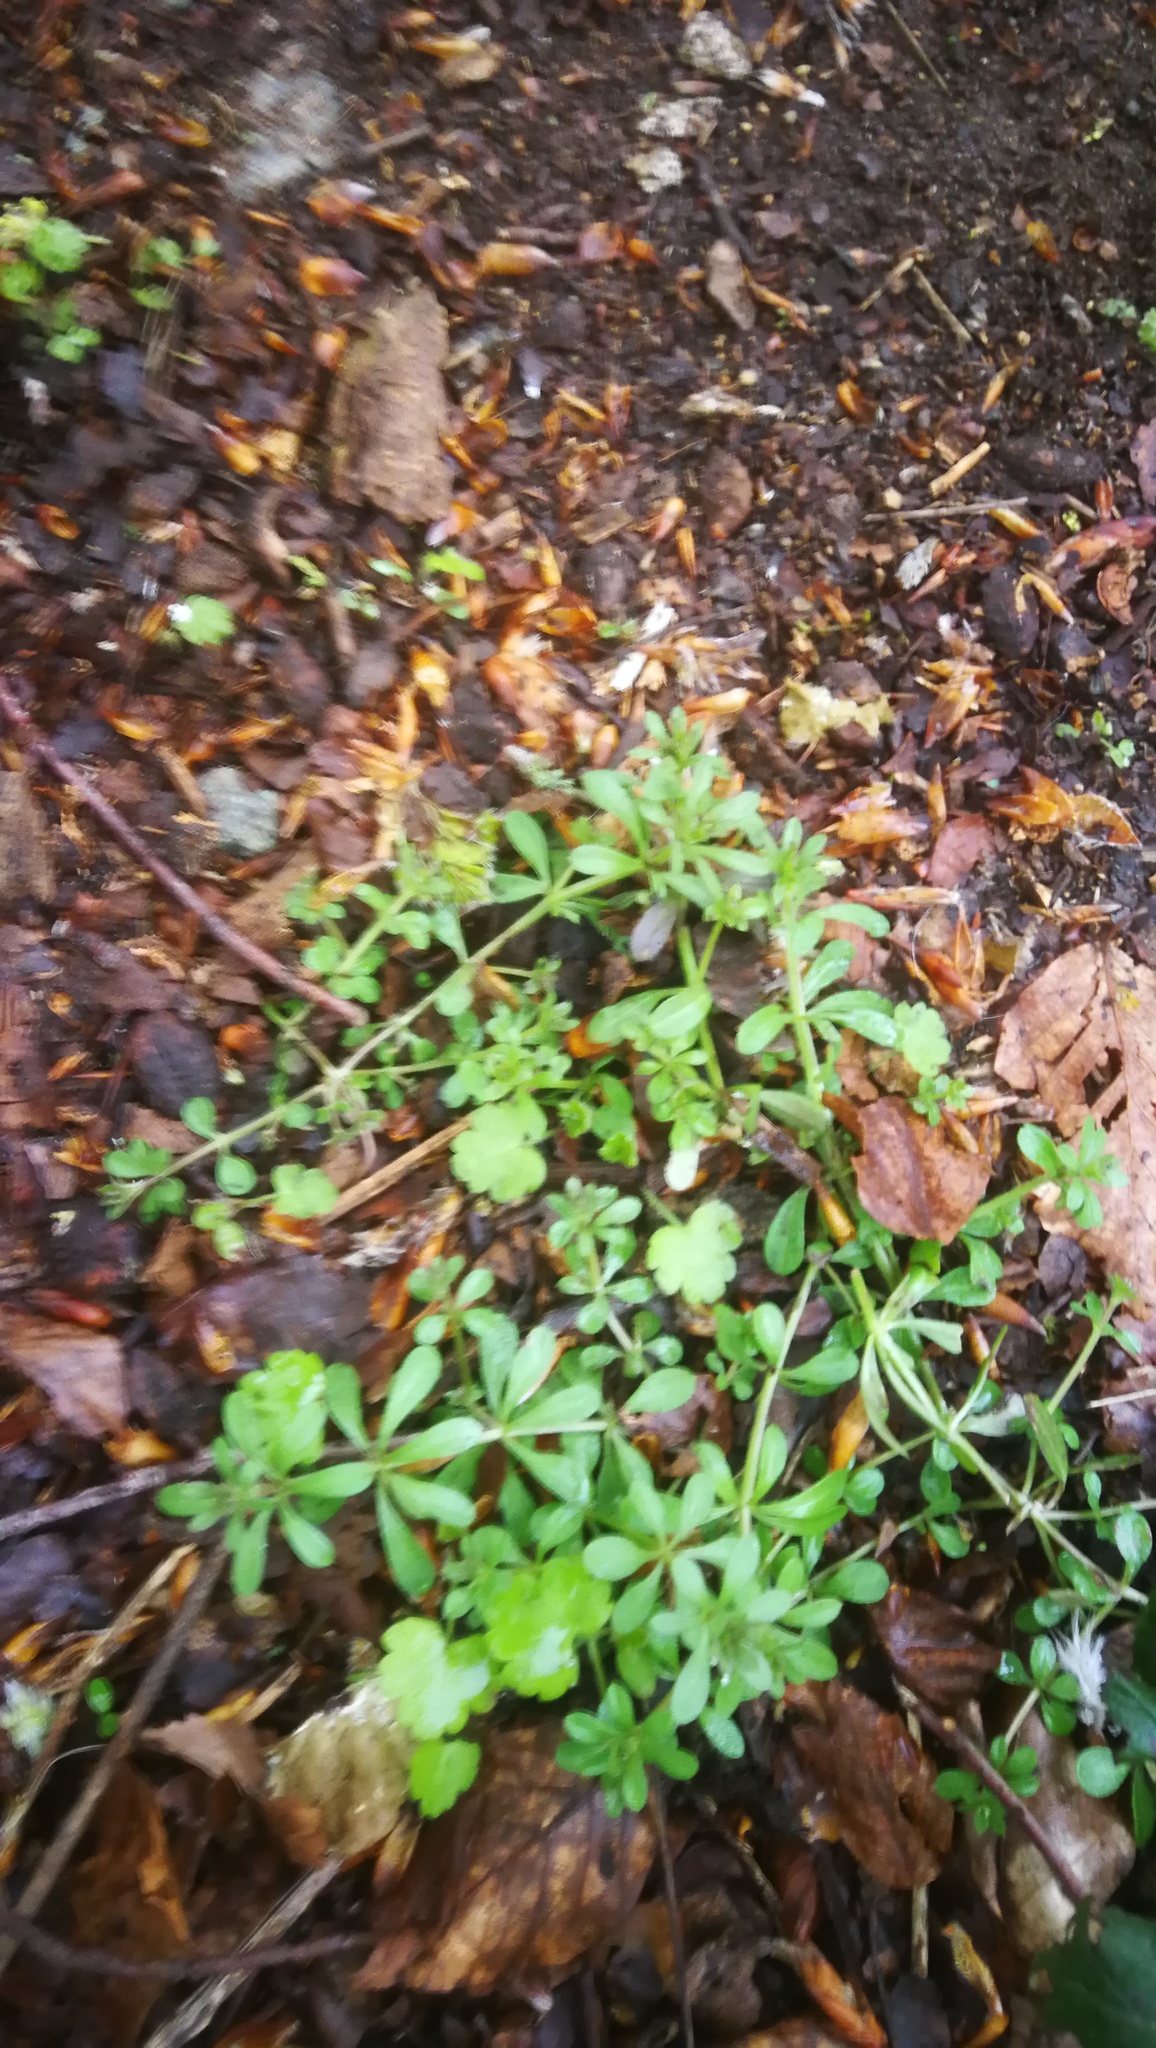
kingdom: Plantae
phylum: Tracheophyta
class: Magnoliopsida
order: Gentianales
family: Rubiaceae
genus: Galium
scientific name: Galium aparine
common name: Cleavers
